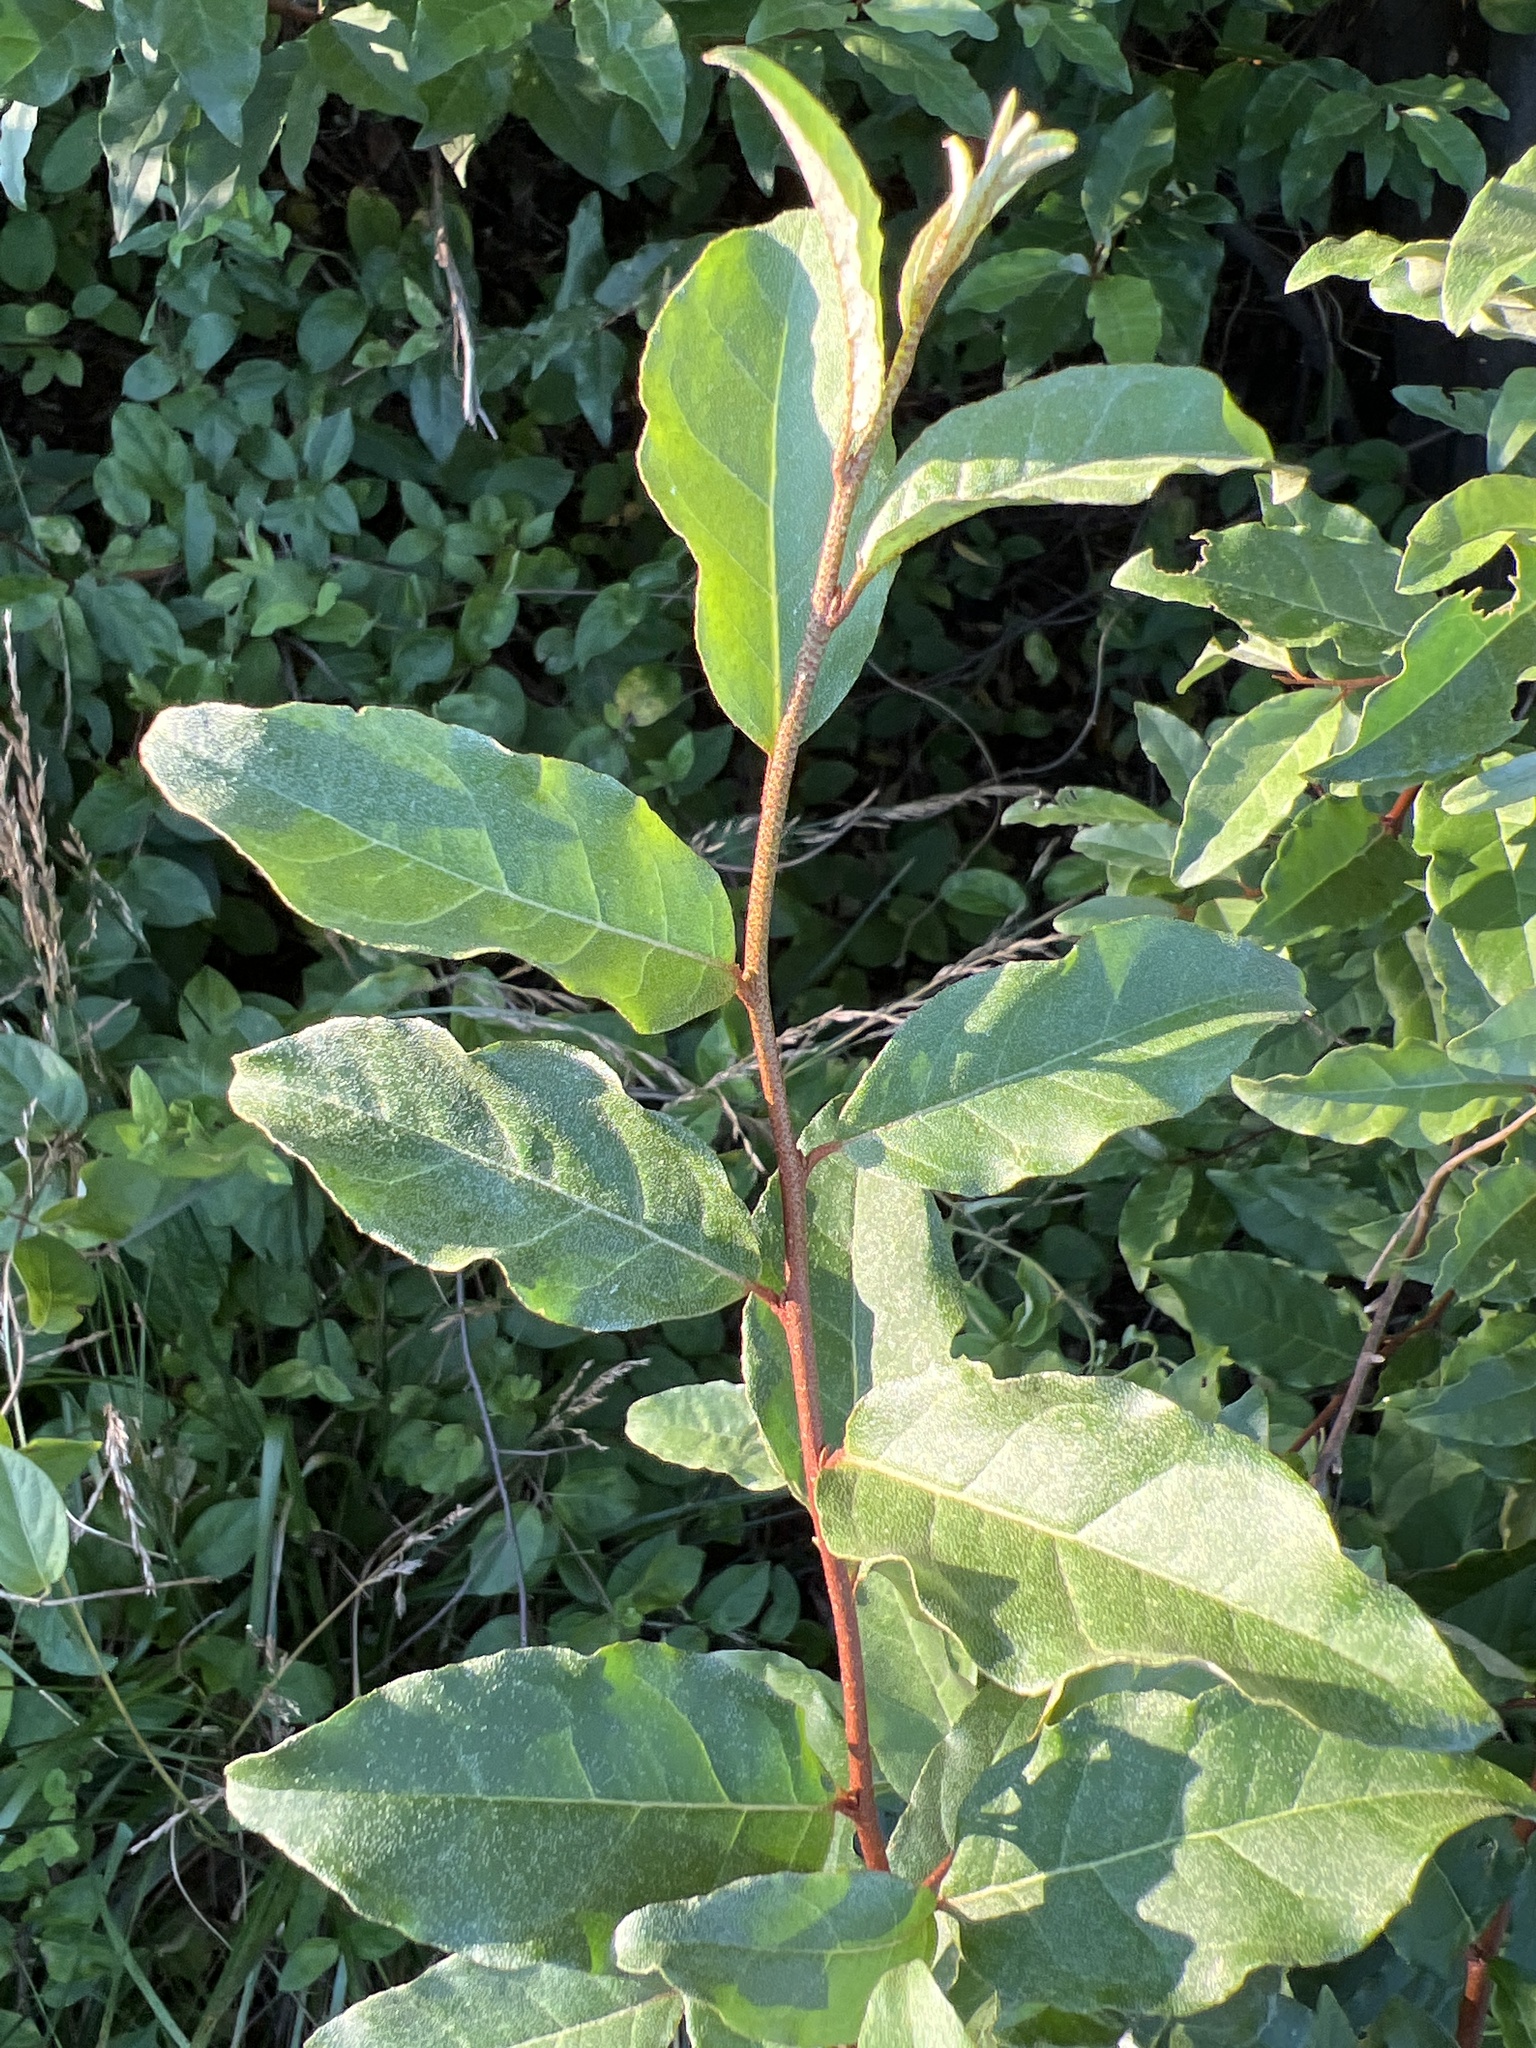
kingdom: Plantae
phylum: Tracheophyta
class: Magnoliopsida
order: Rosales
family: Elaeagnaceae
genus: Elaeagnus
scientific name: Elaeagnus umbellata
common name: Autumn olive
